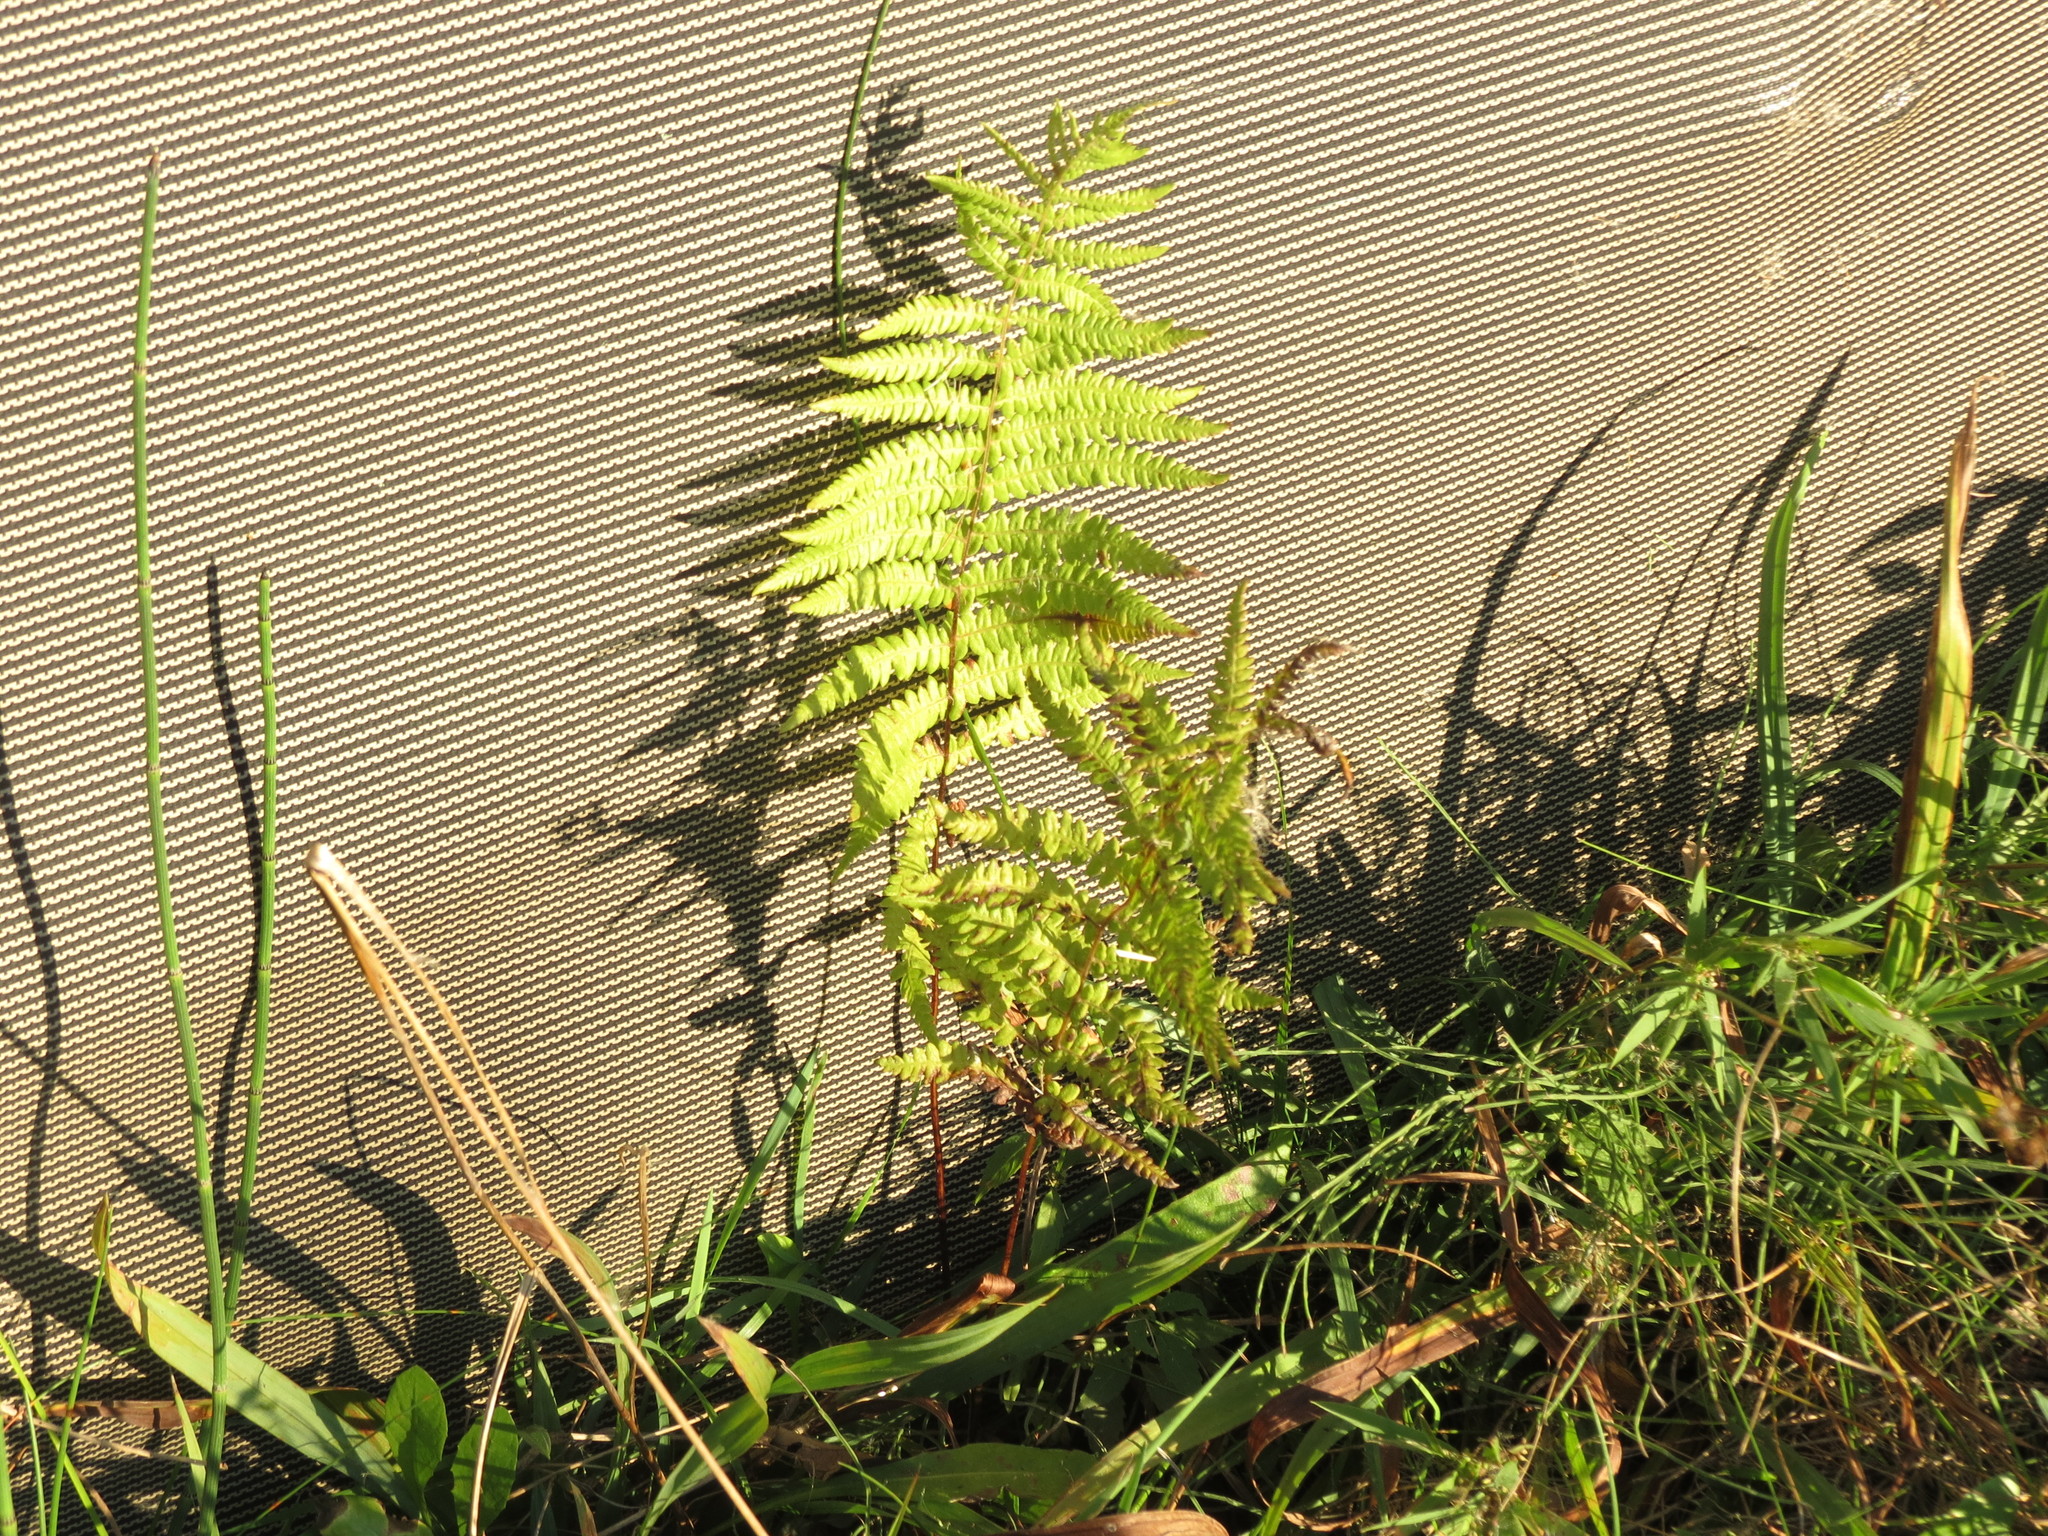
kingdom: Plantae
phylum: Tracheophyta
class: Polypodiopsida
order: Polypodiales
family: Thelypteridaceae
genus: Thelypteris
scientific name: Thelypteris palustris
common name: Marsh fern
